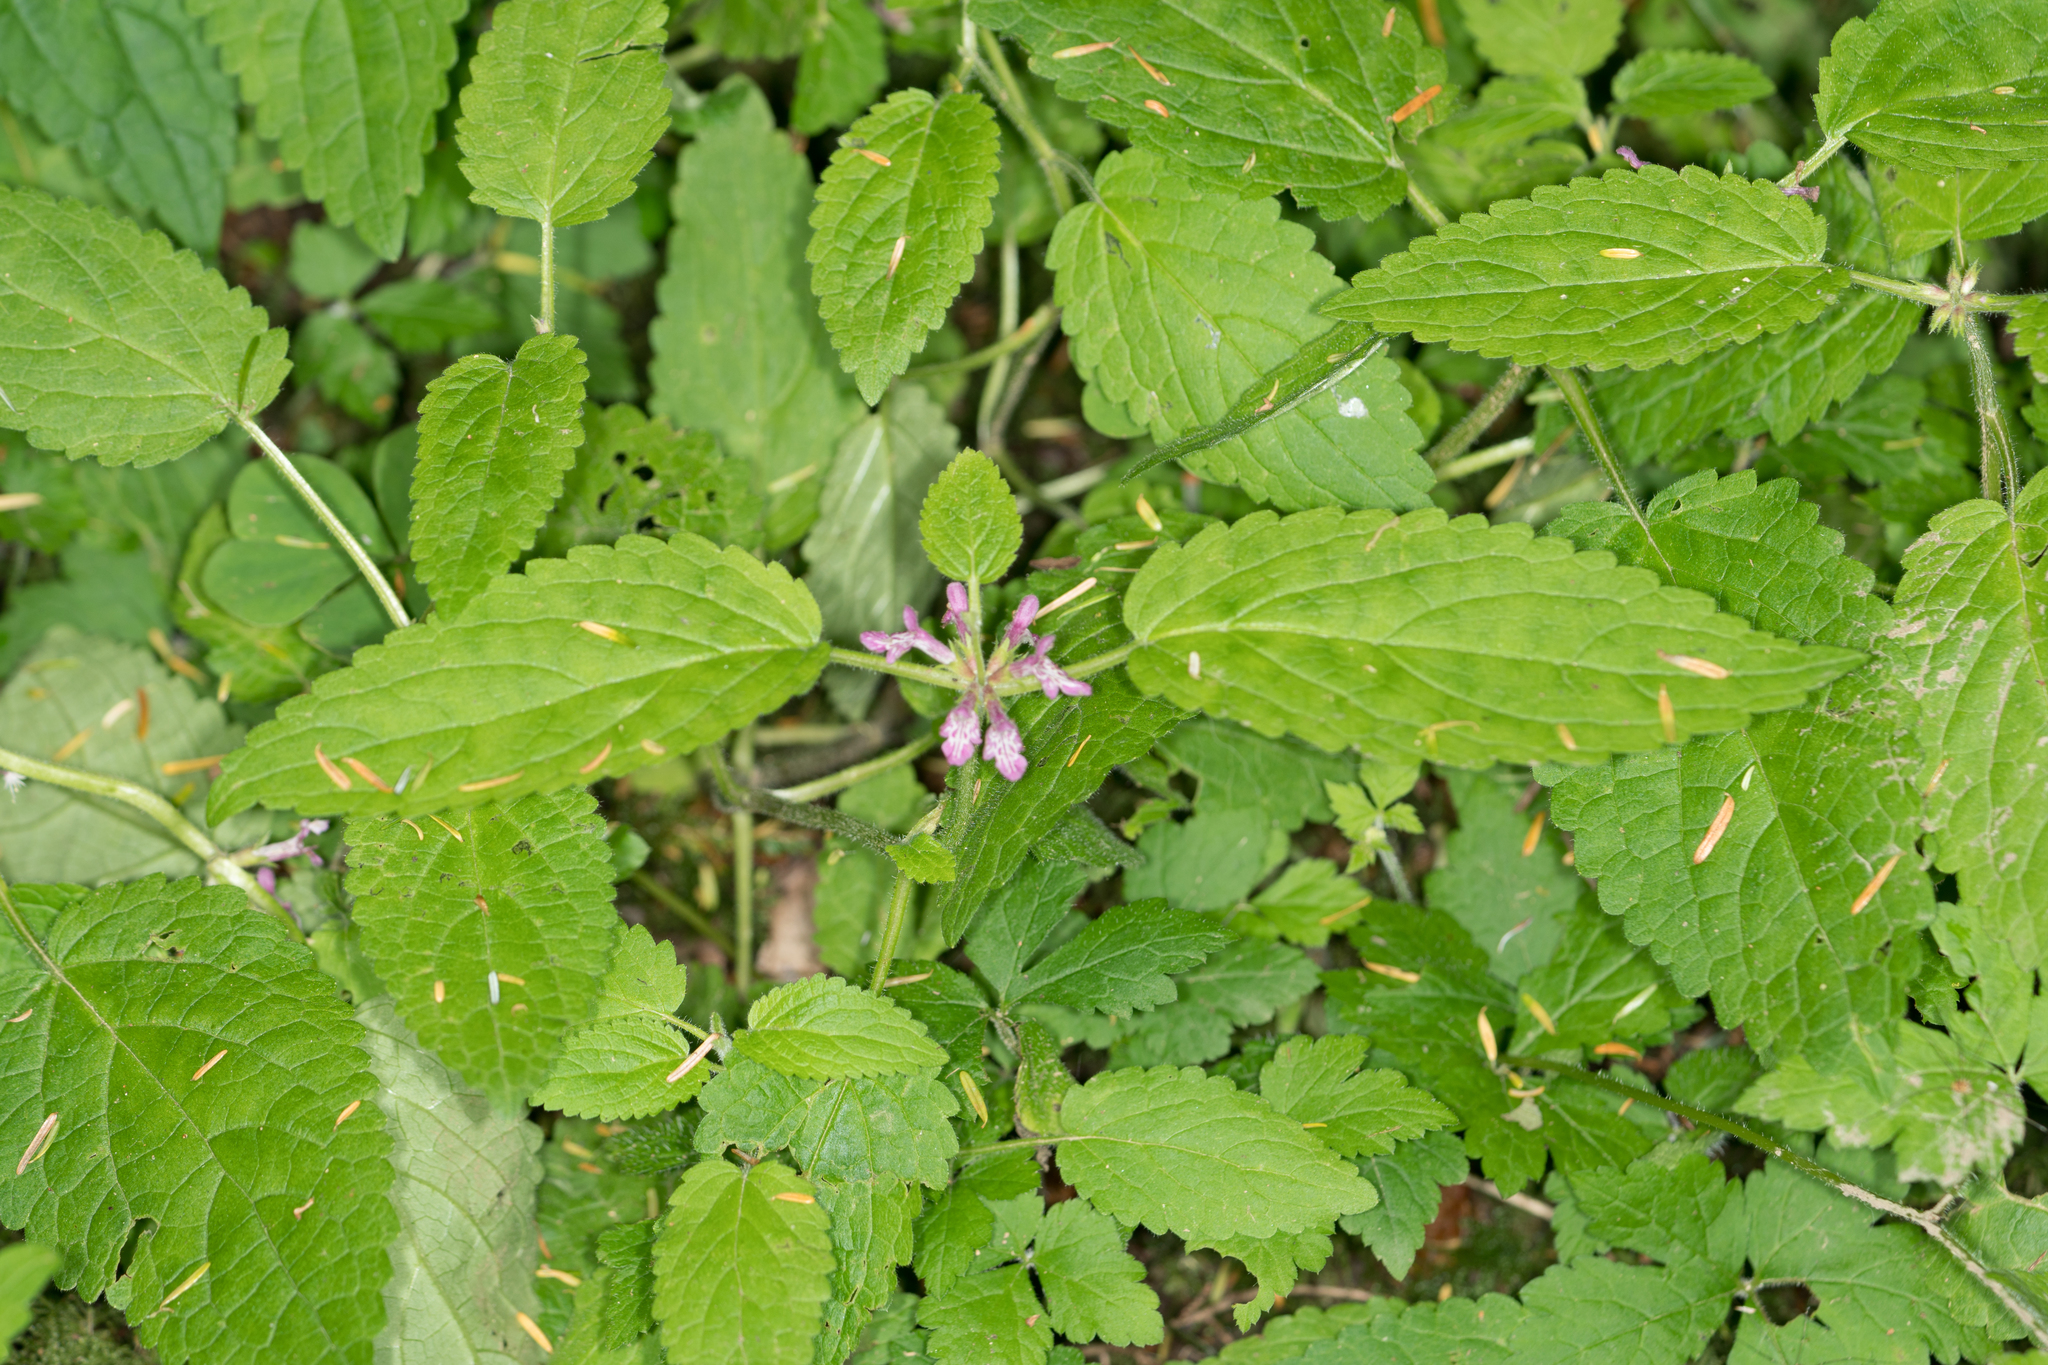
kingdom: Plantae
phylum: Tracheophyta
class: Magnoliopsida
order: Lamiales
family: Lamiaceae
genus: Stachys
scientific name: Stachys mexicana
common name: Mexican hedge-nettle
